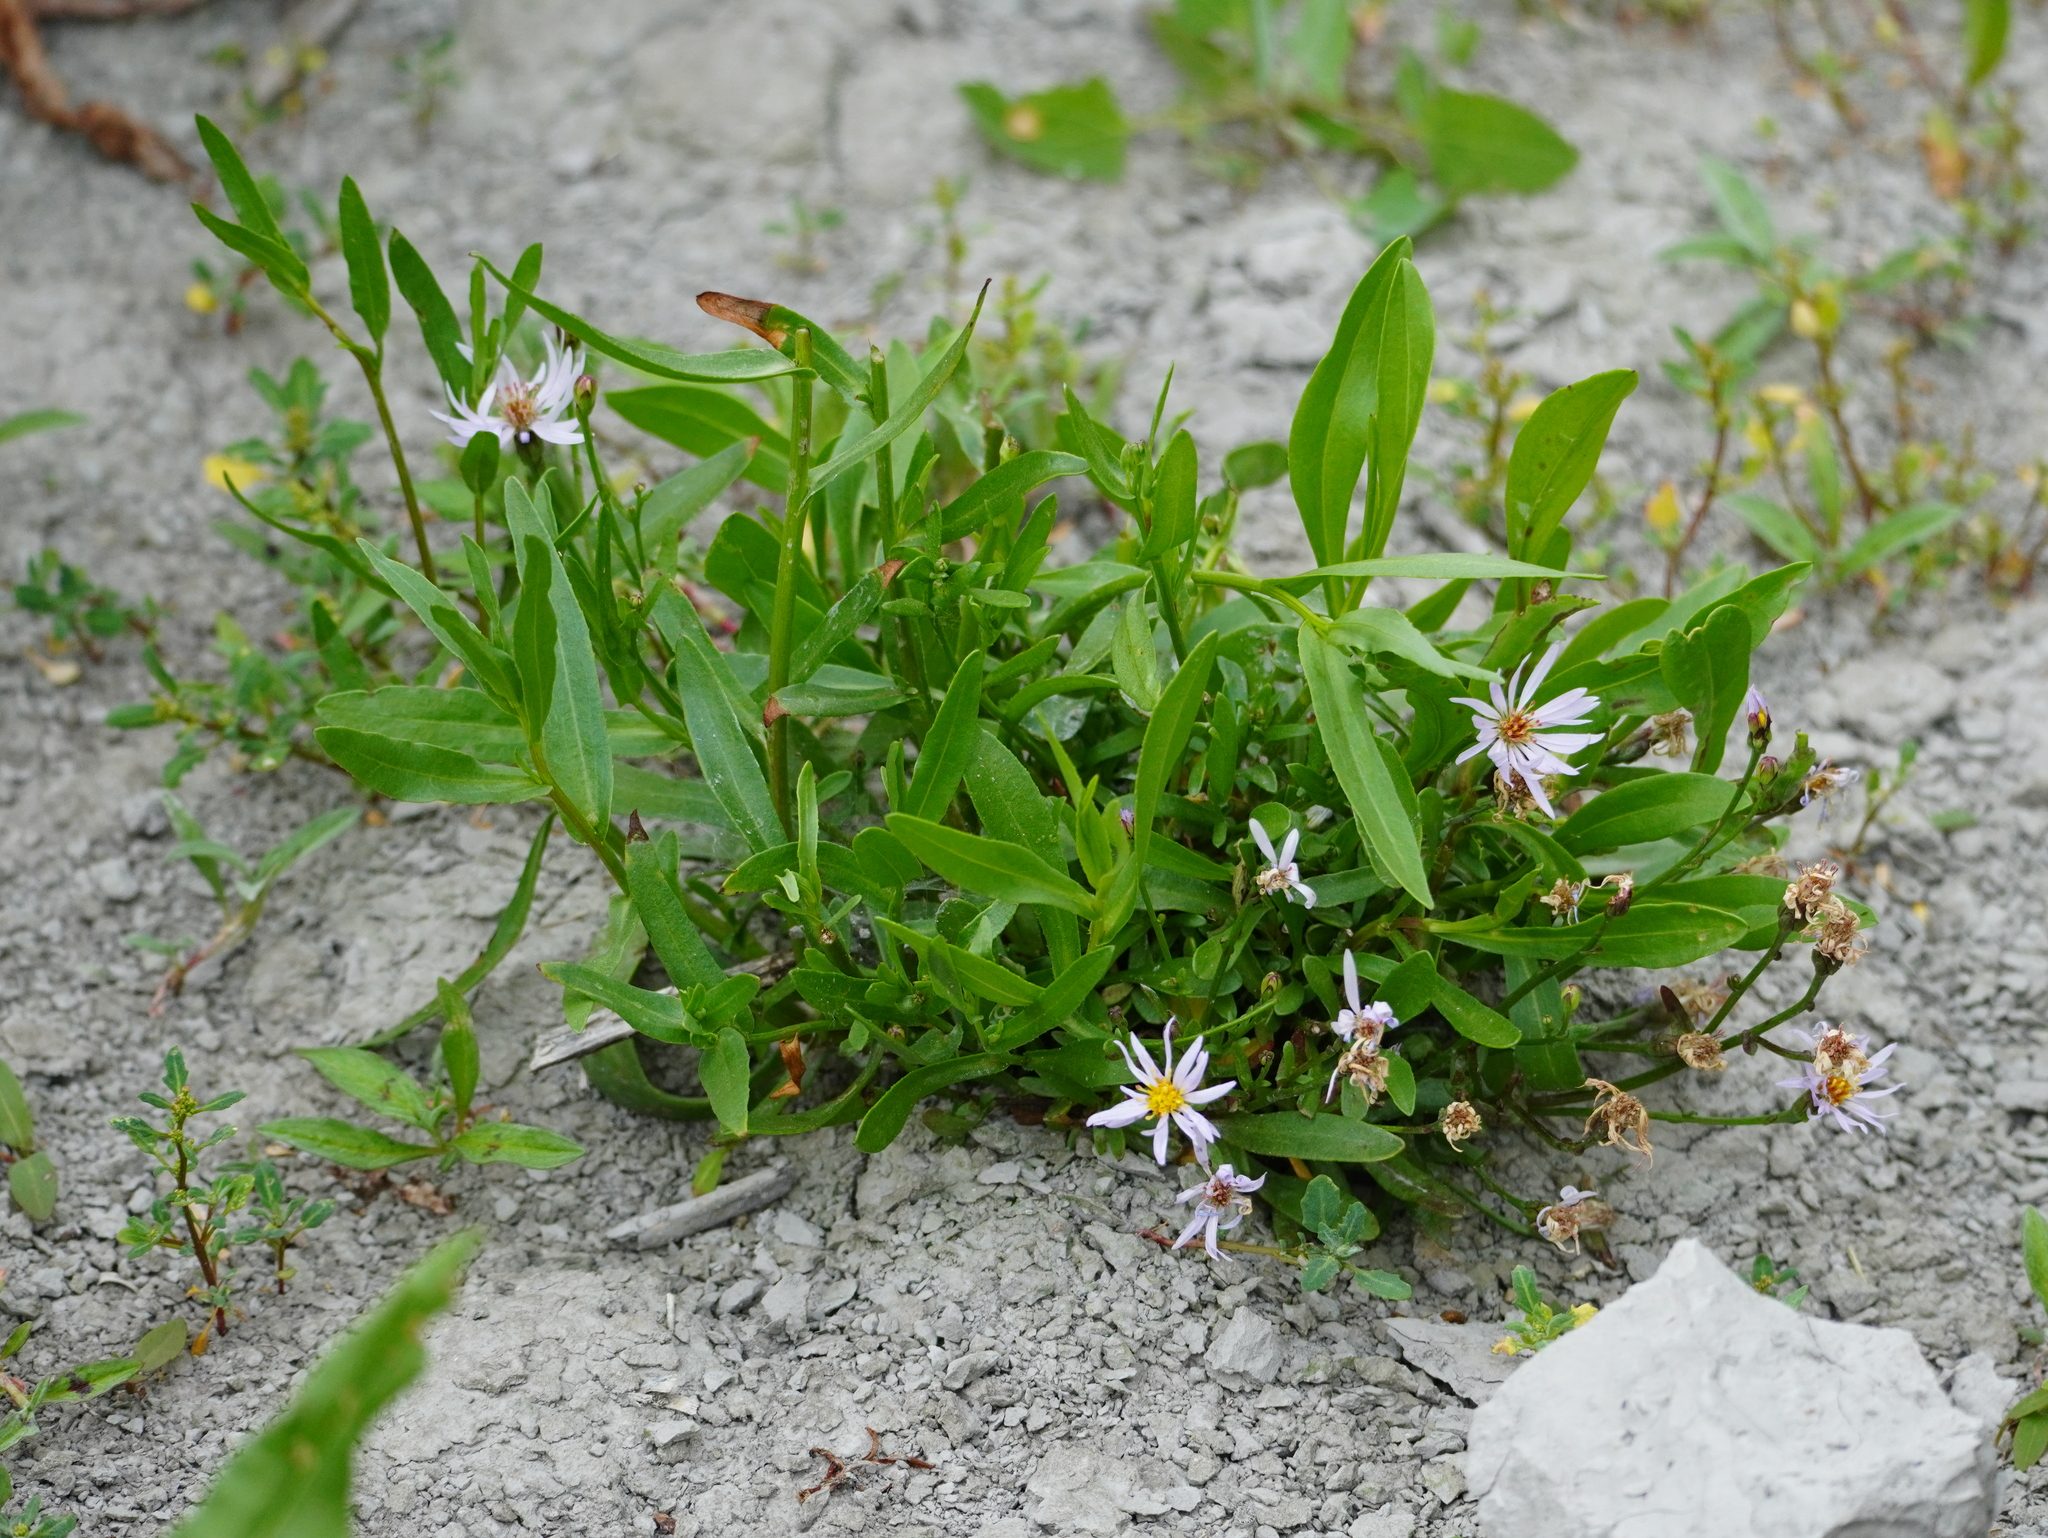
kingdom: Plantae
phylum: Tracheophyta
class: Magnoliopsida
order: Asterales
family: Asteraceae
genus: Tripolium
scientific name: Tripolium pannonicum
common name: Sea aster
